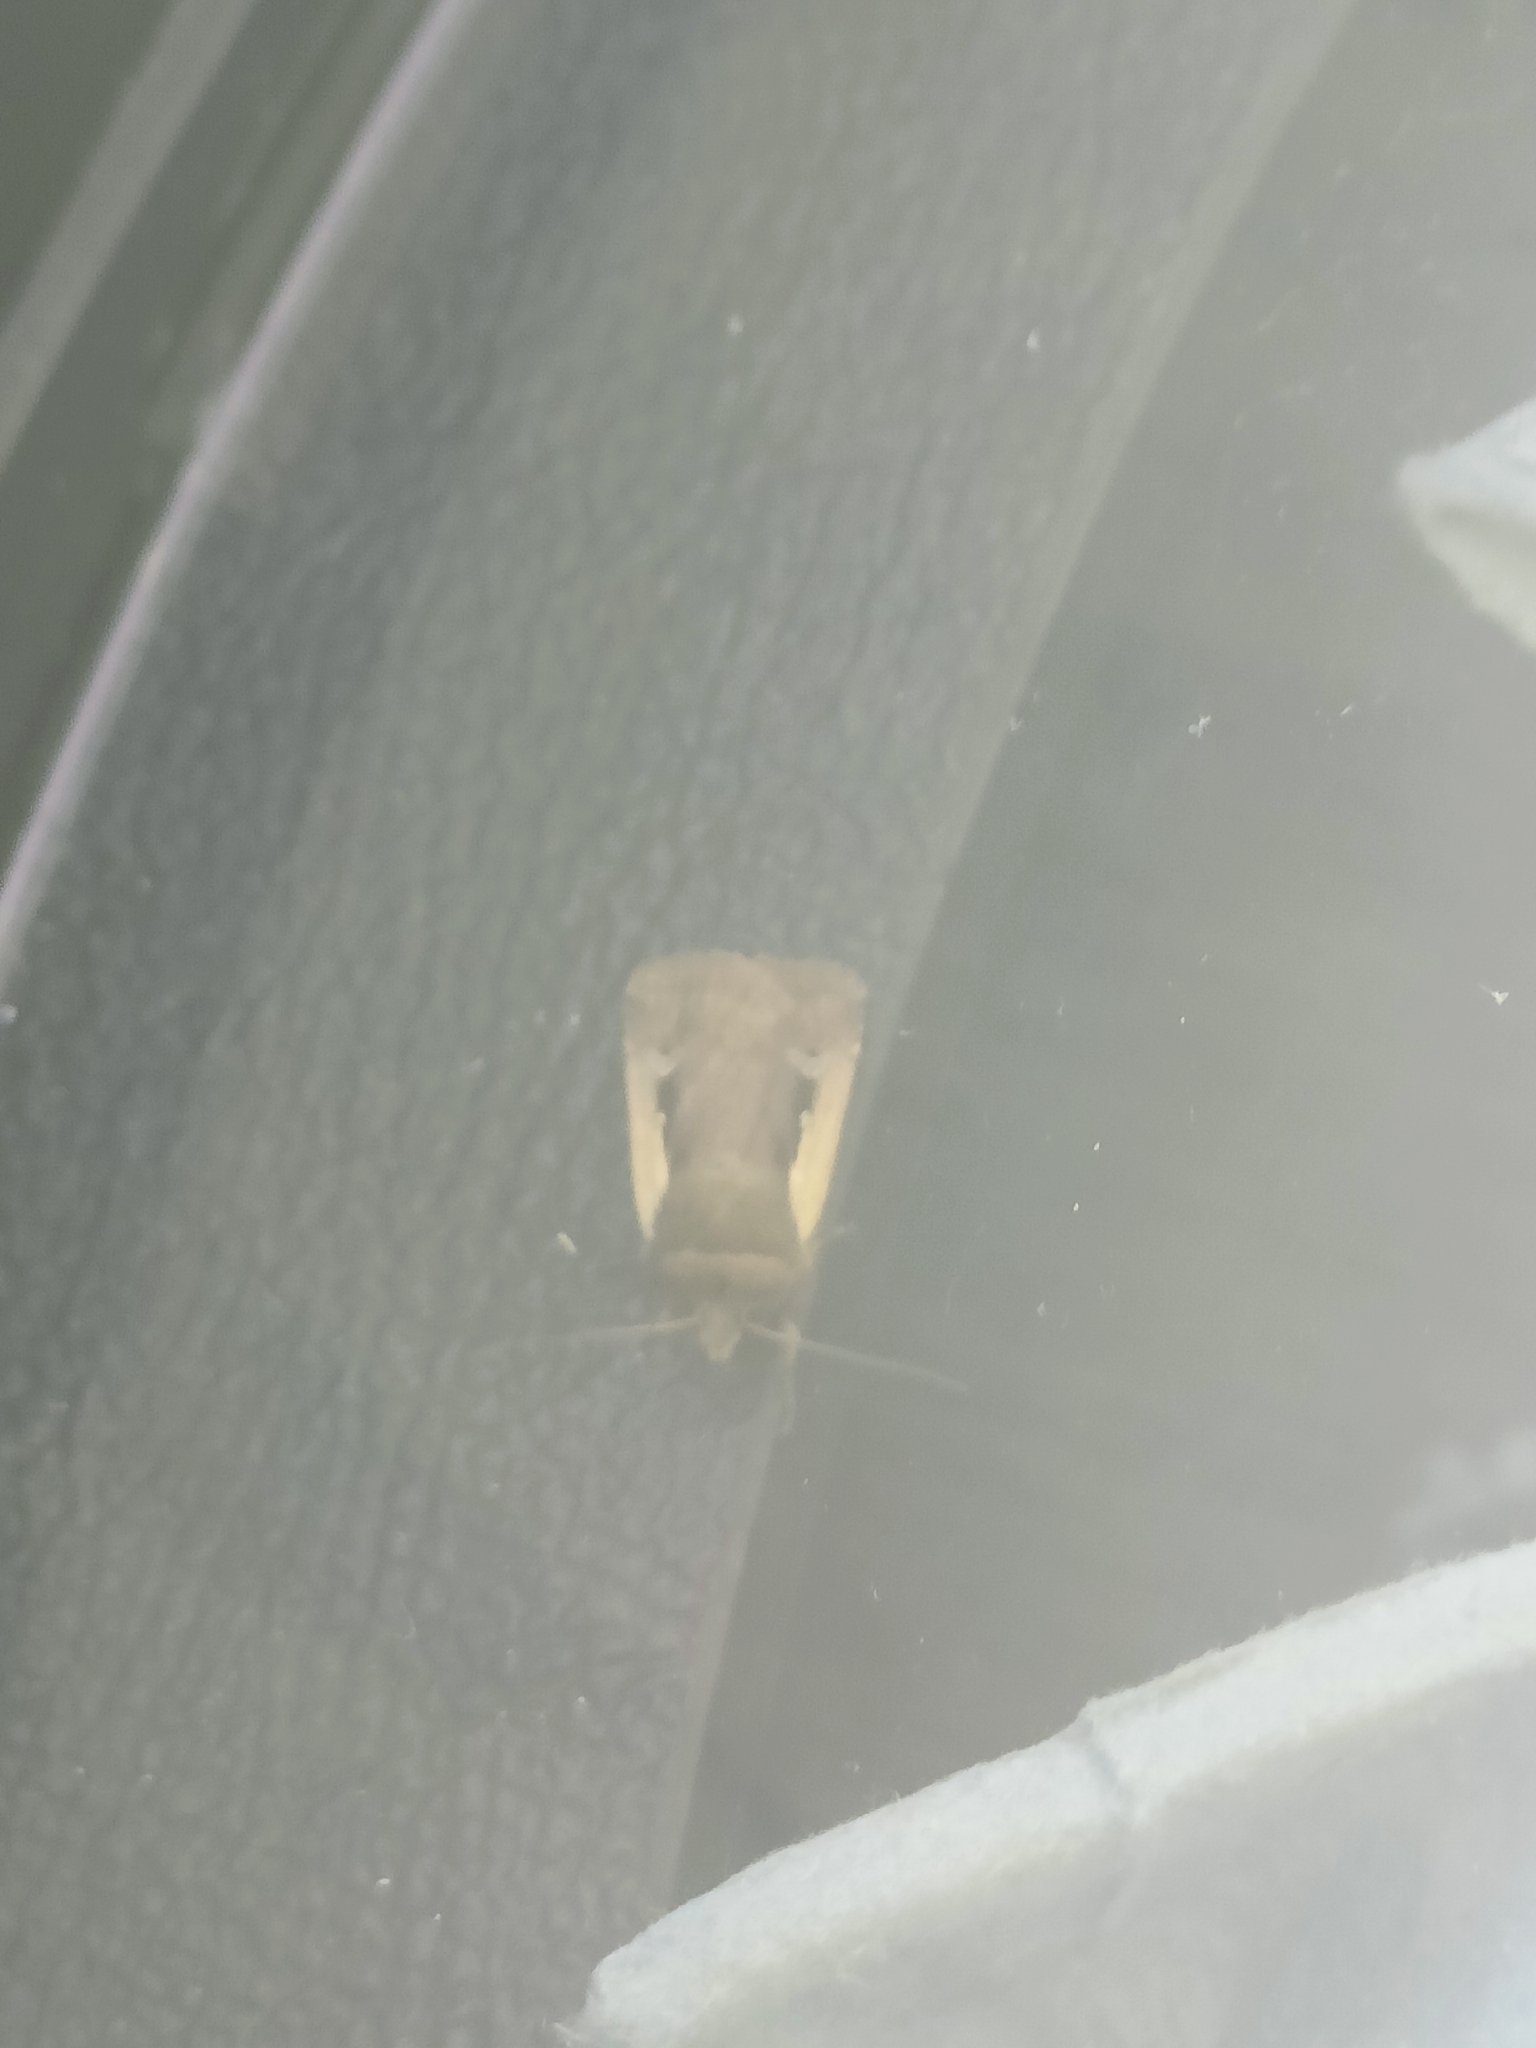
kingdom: Animalia
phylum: Arthropoda
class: Insecta
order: Lepidoptera
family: Noctuidae
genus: Ochropleura
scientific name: Ochropleura plecta
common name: Flame shoulder
